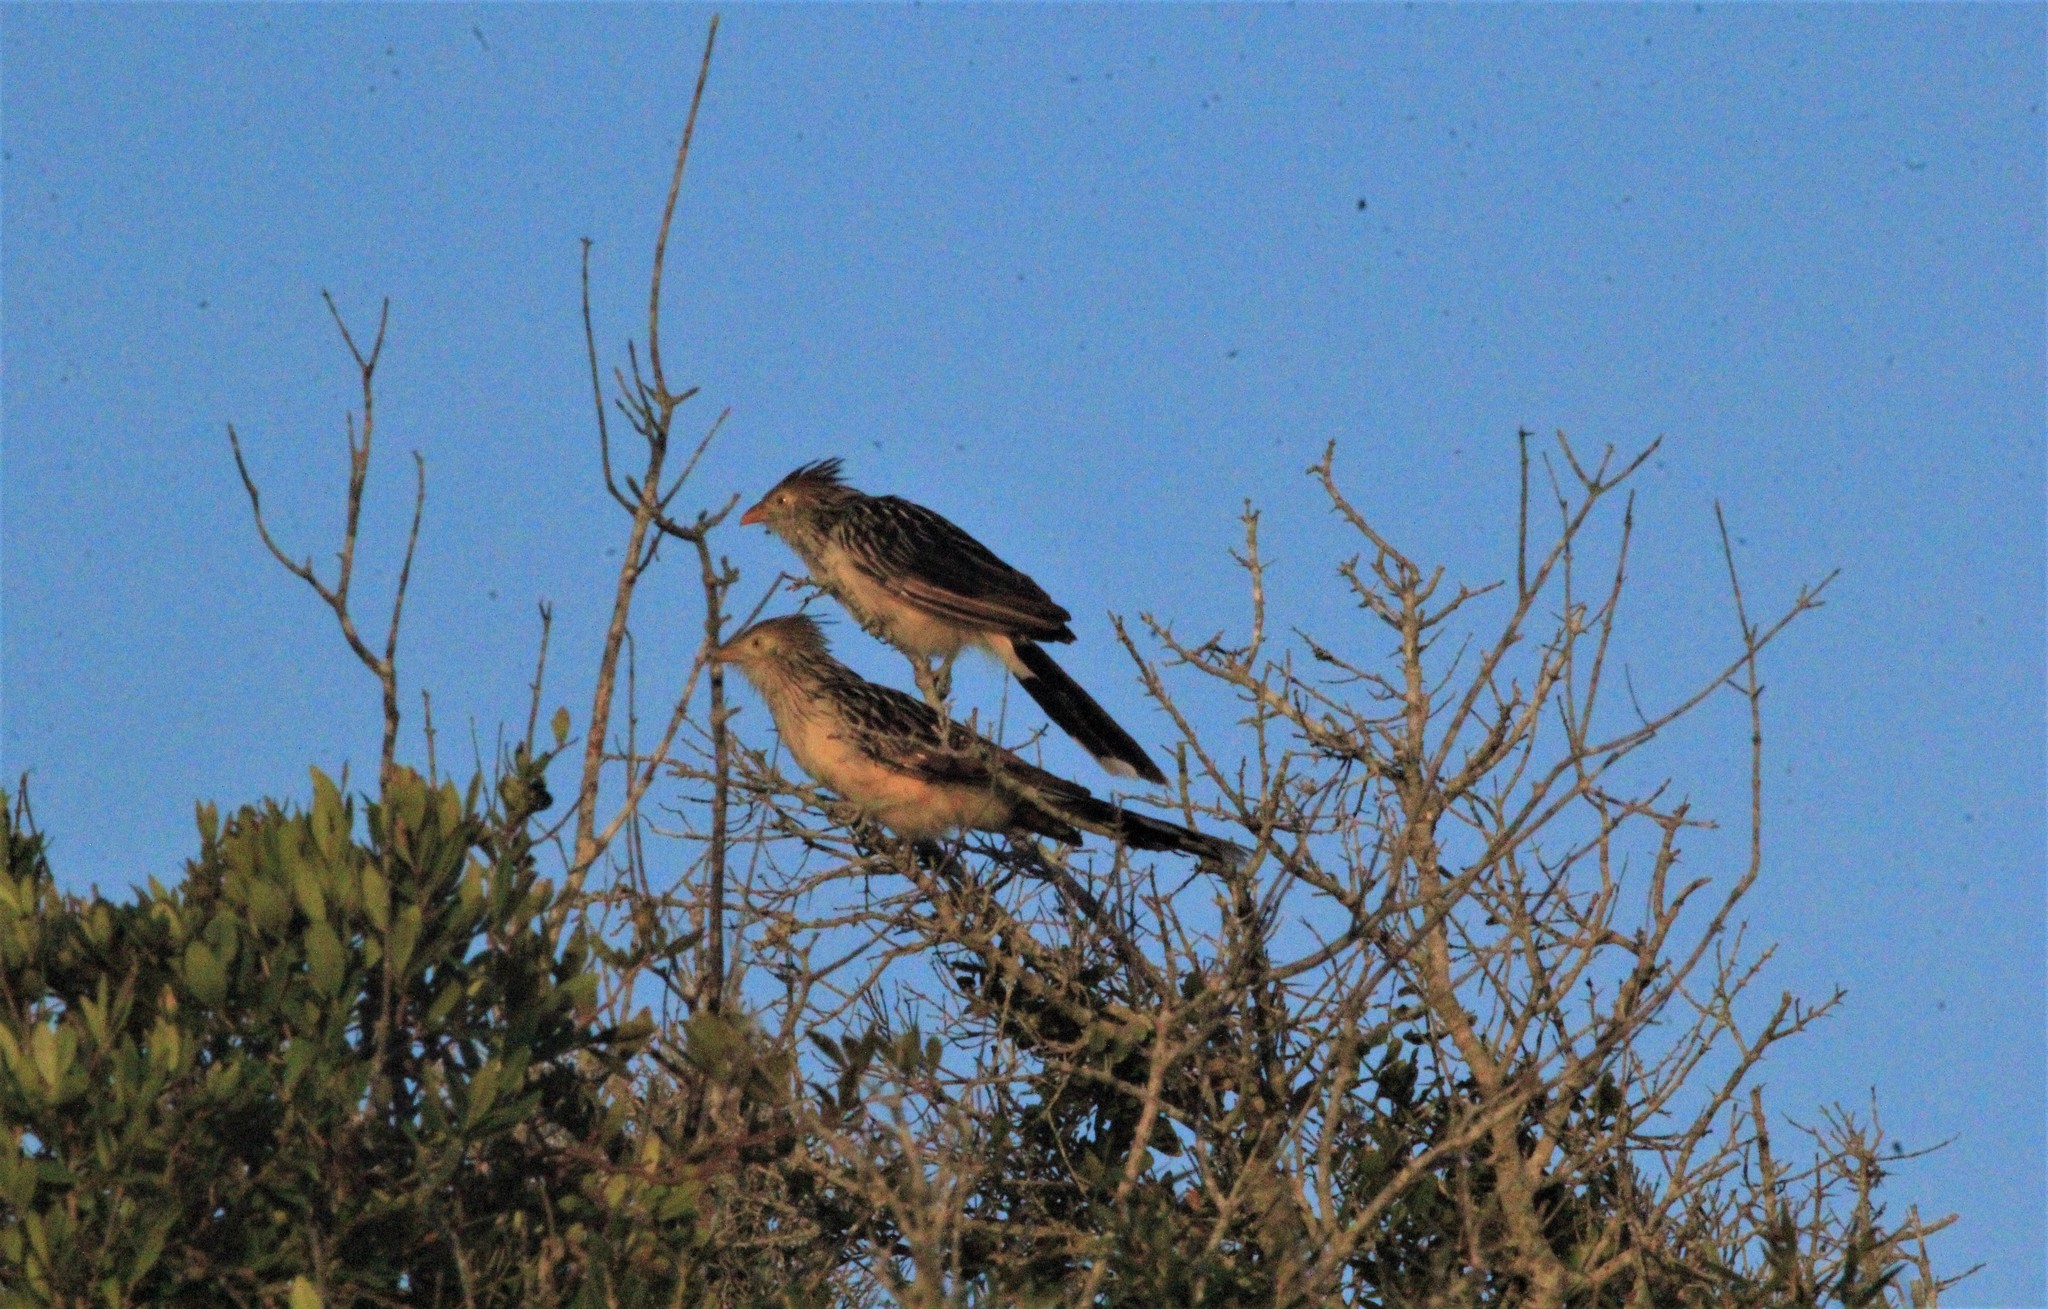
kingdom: Animalia
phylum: Chordata
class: Aves
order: Cuculiformes
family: Cuculidae
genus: Guira
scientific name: Guira guira
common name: Guira cuckoo
